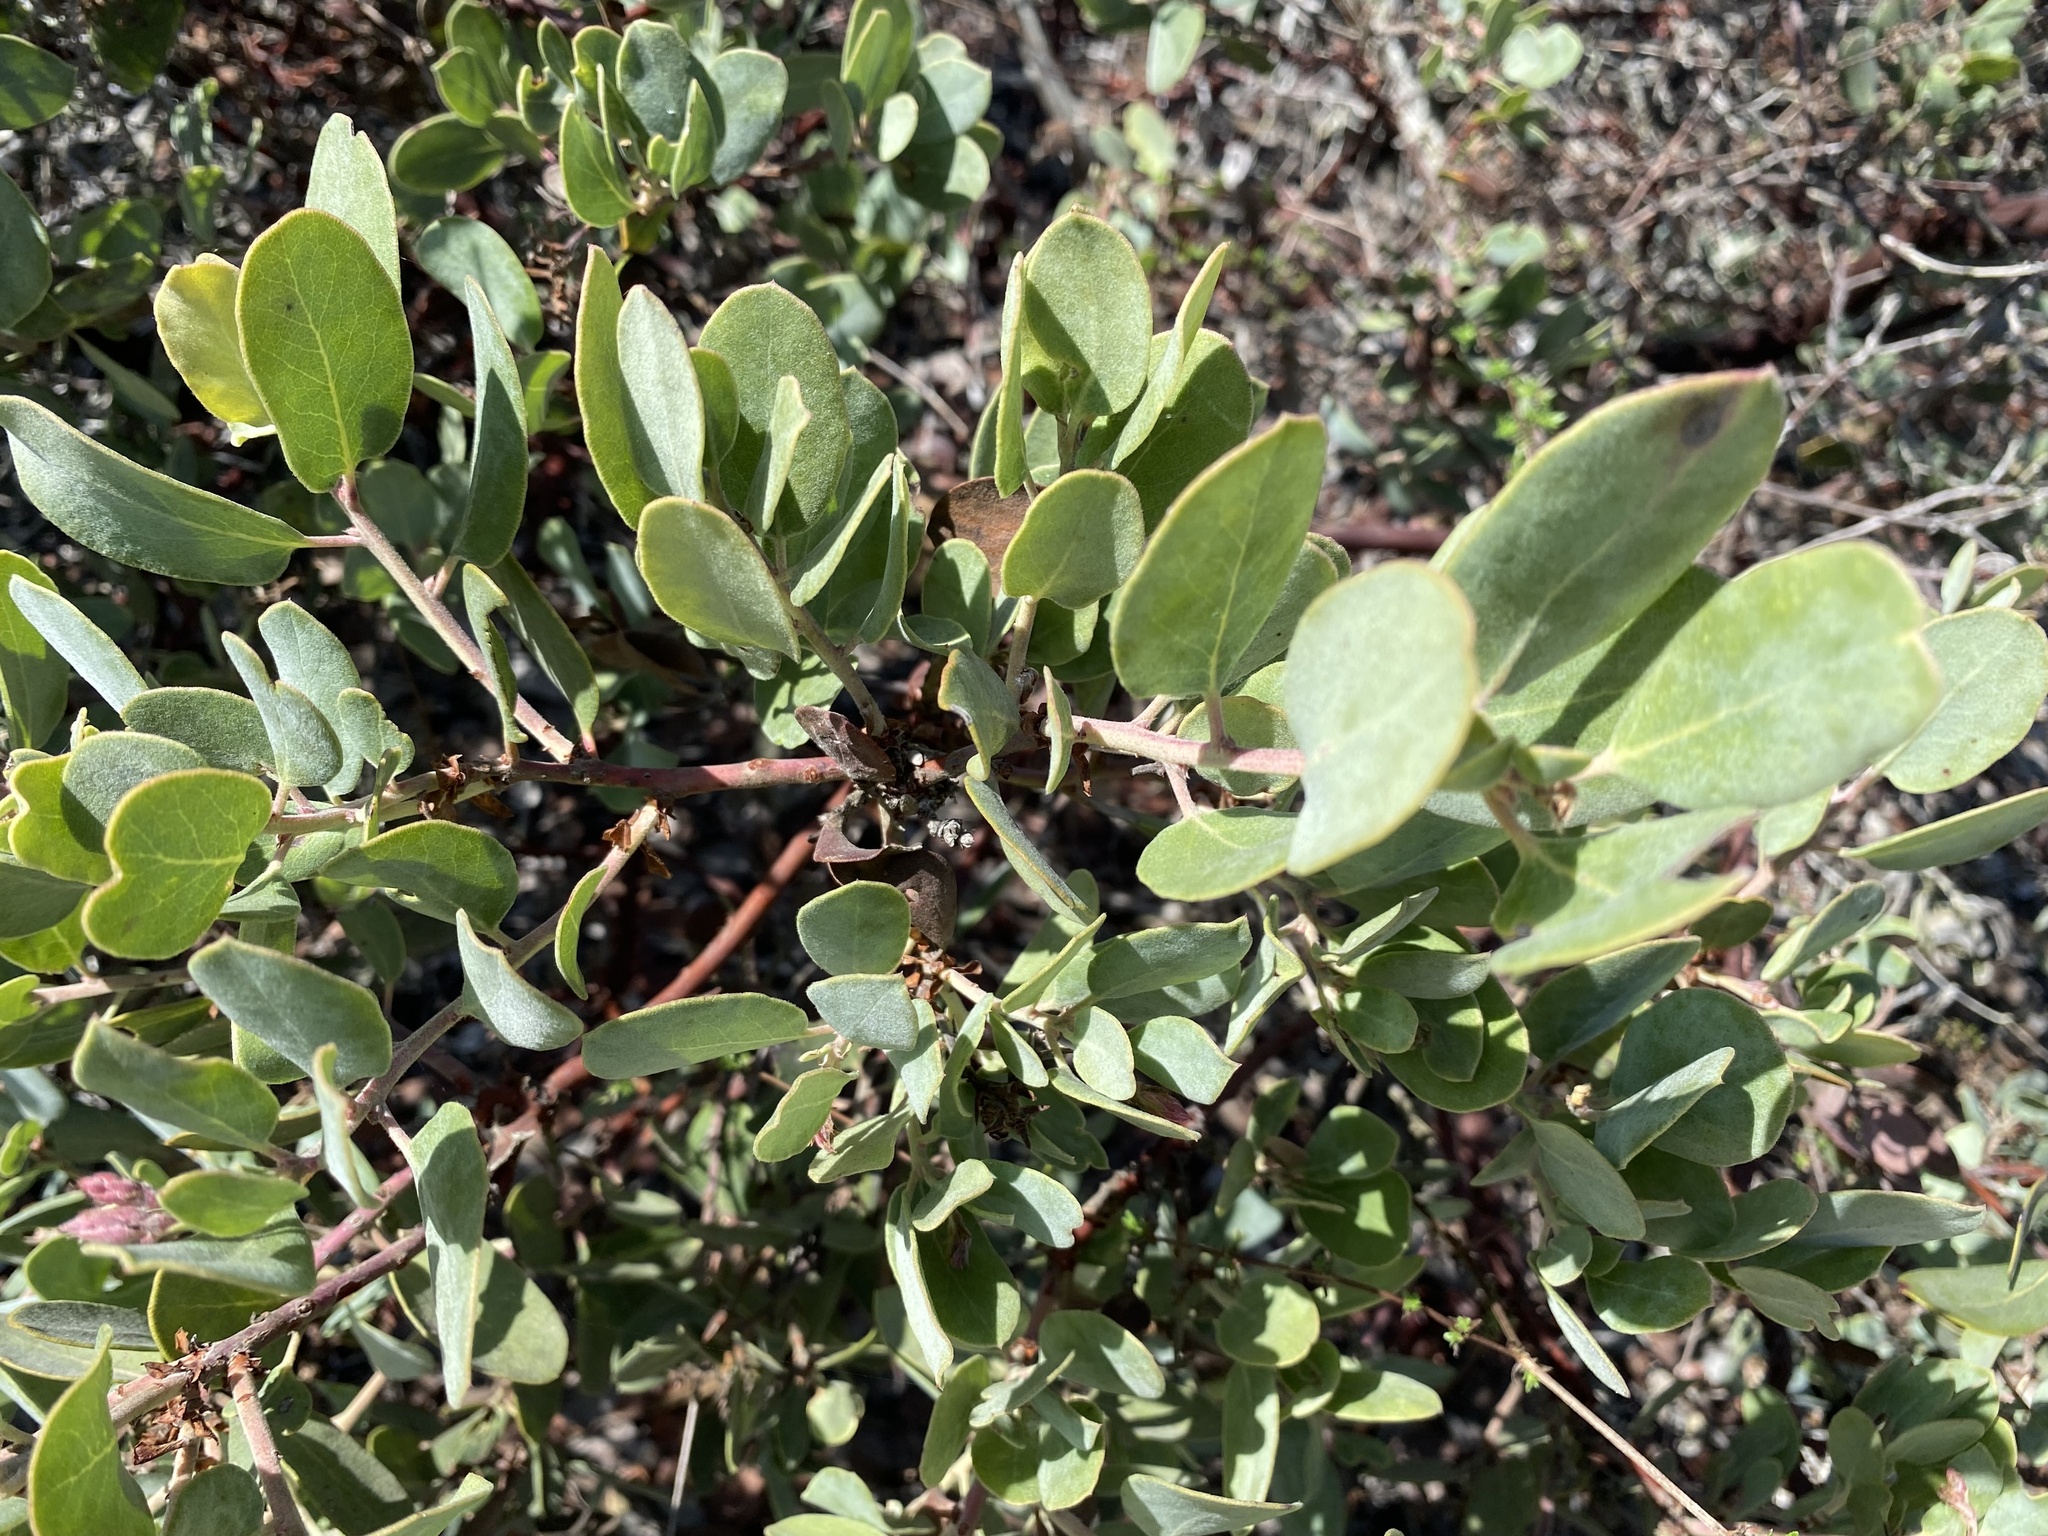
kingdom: Plantae
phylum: Tracheophyta
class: Magnoliopsida
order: Caryophyllales
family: Simmondsiaceae
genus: Simmondsia
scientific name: Simmondsia chinensis
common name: Jojoba
